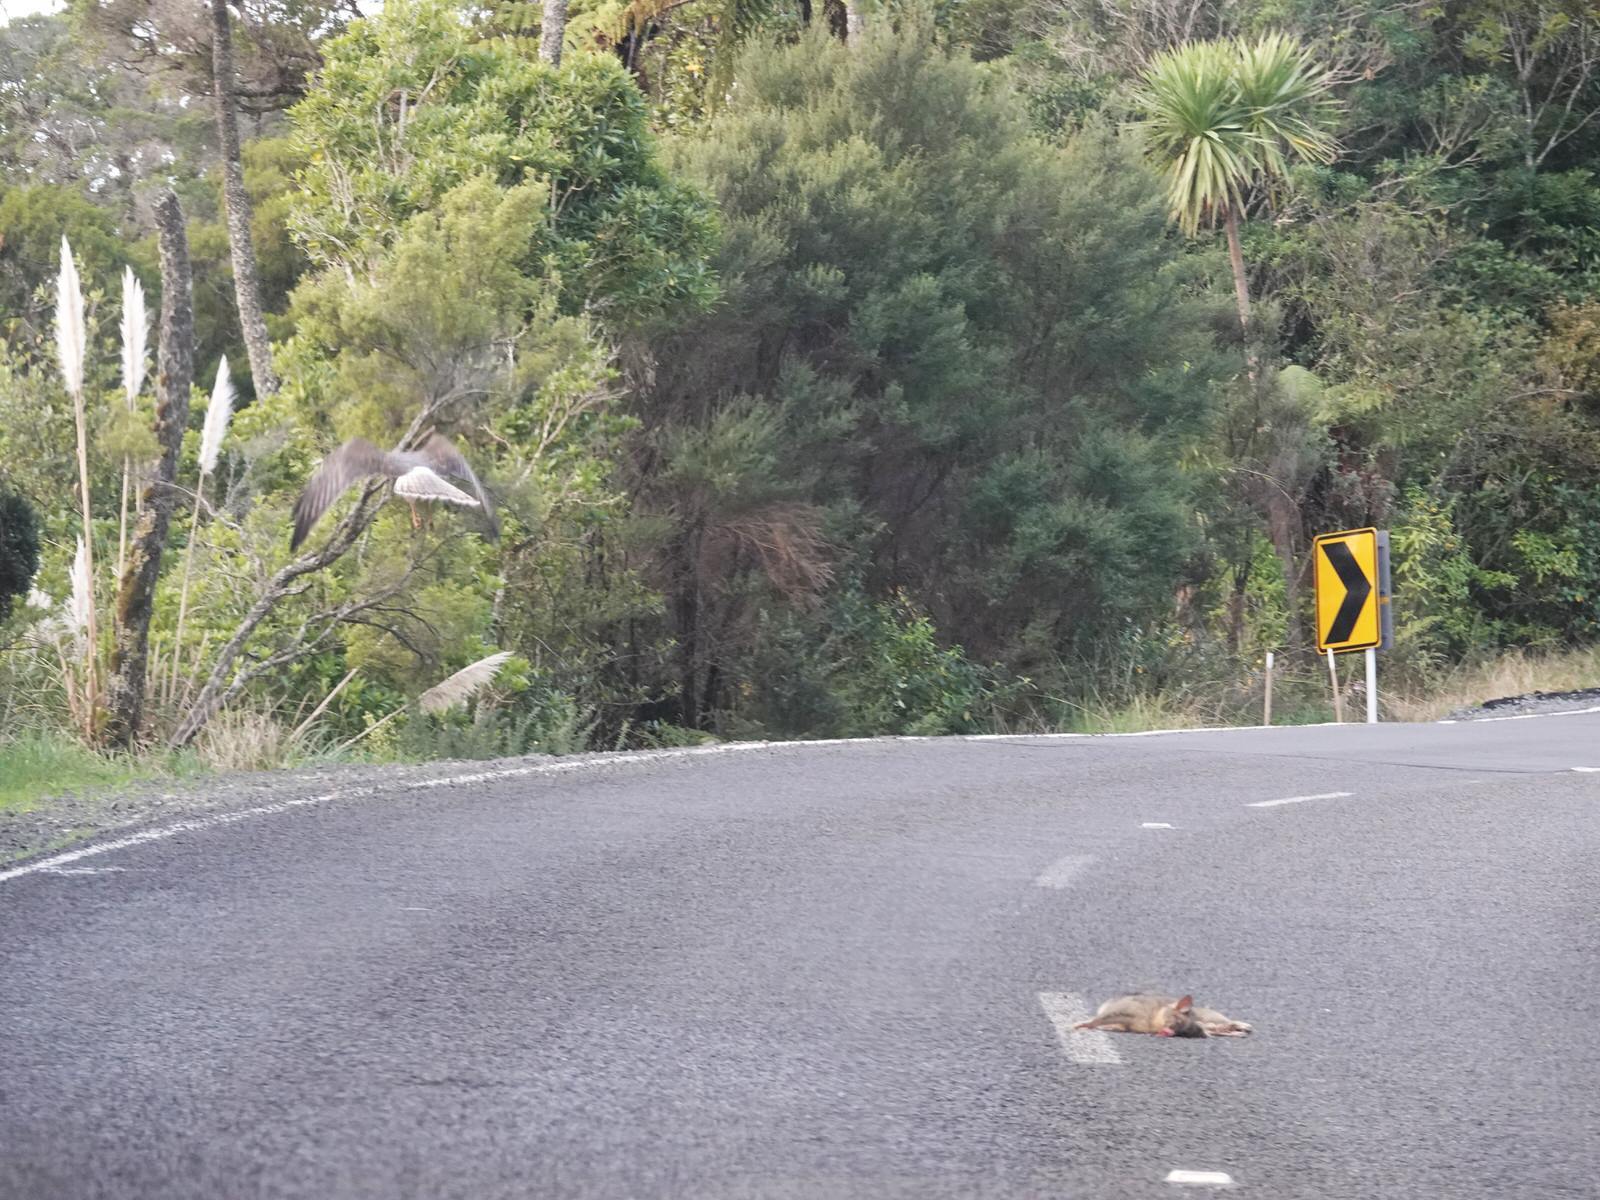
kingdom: Animalia
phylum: Chordata
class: Mammalia
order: Diprotodontia
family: Phalangeridae
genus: Trichosurus
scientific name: Trichosurus vulpecula
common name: Common brushtail
